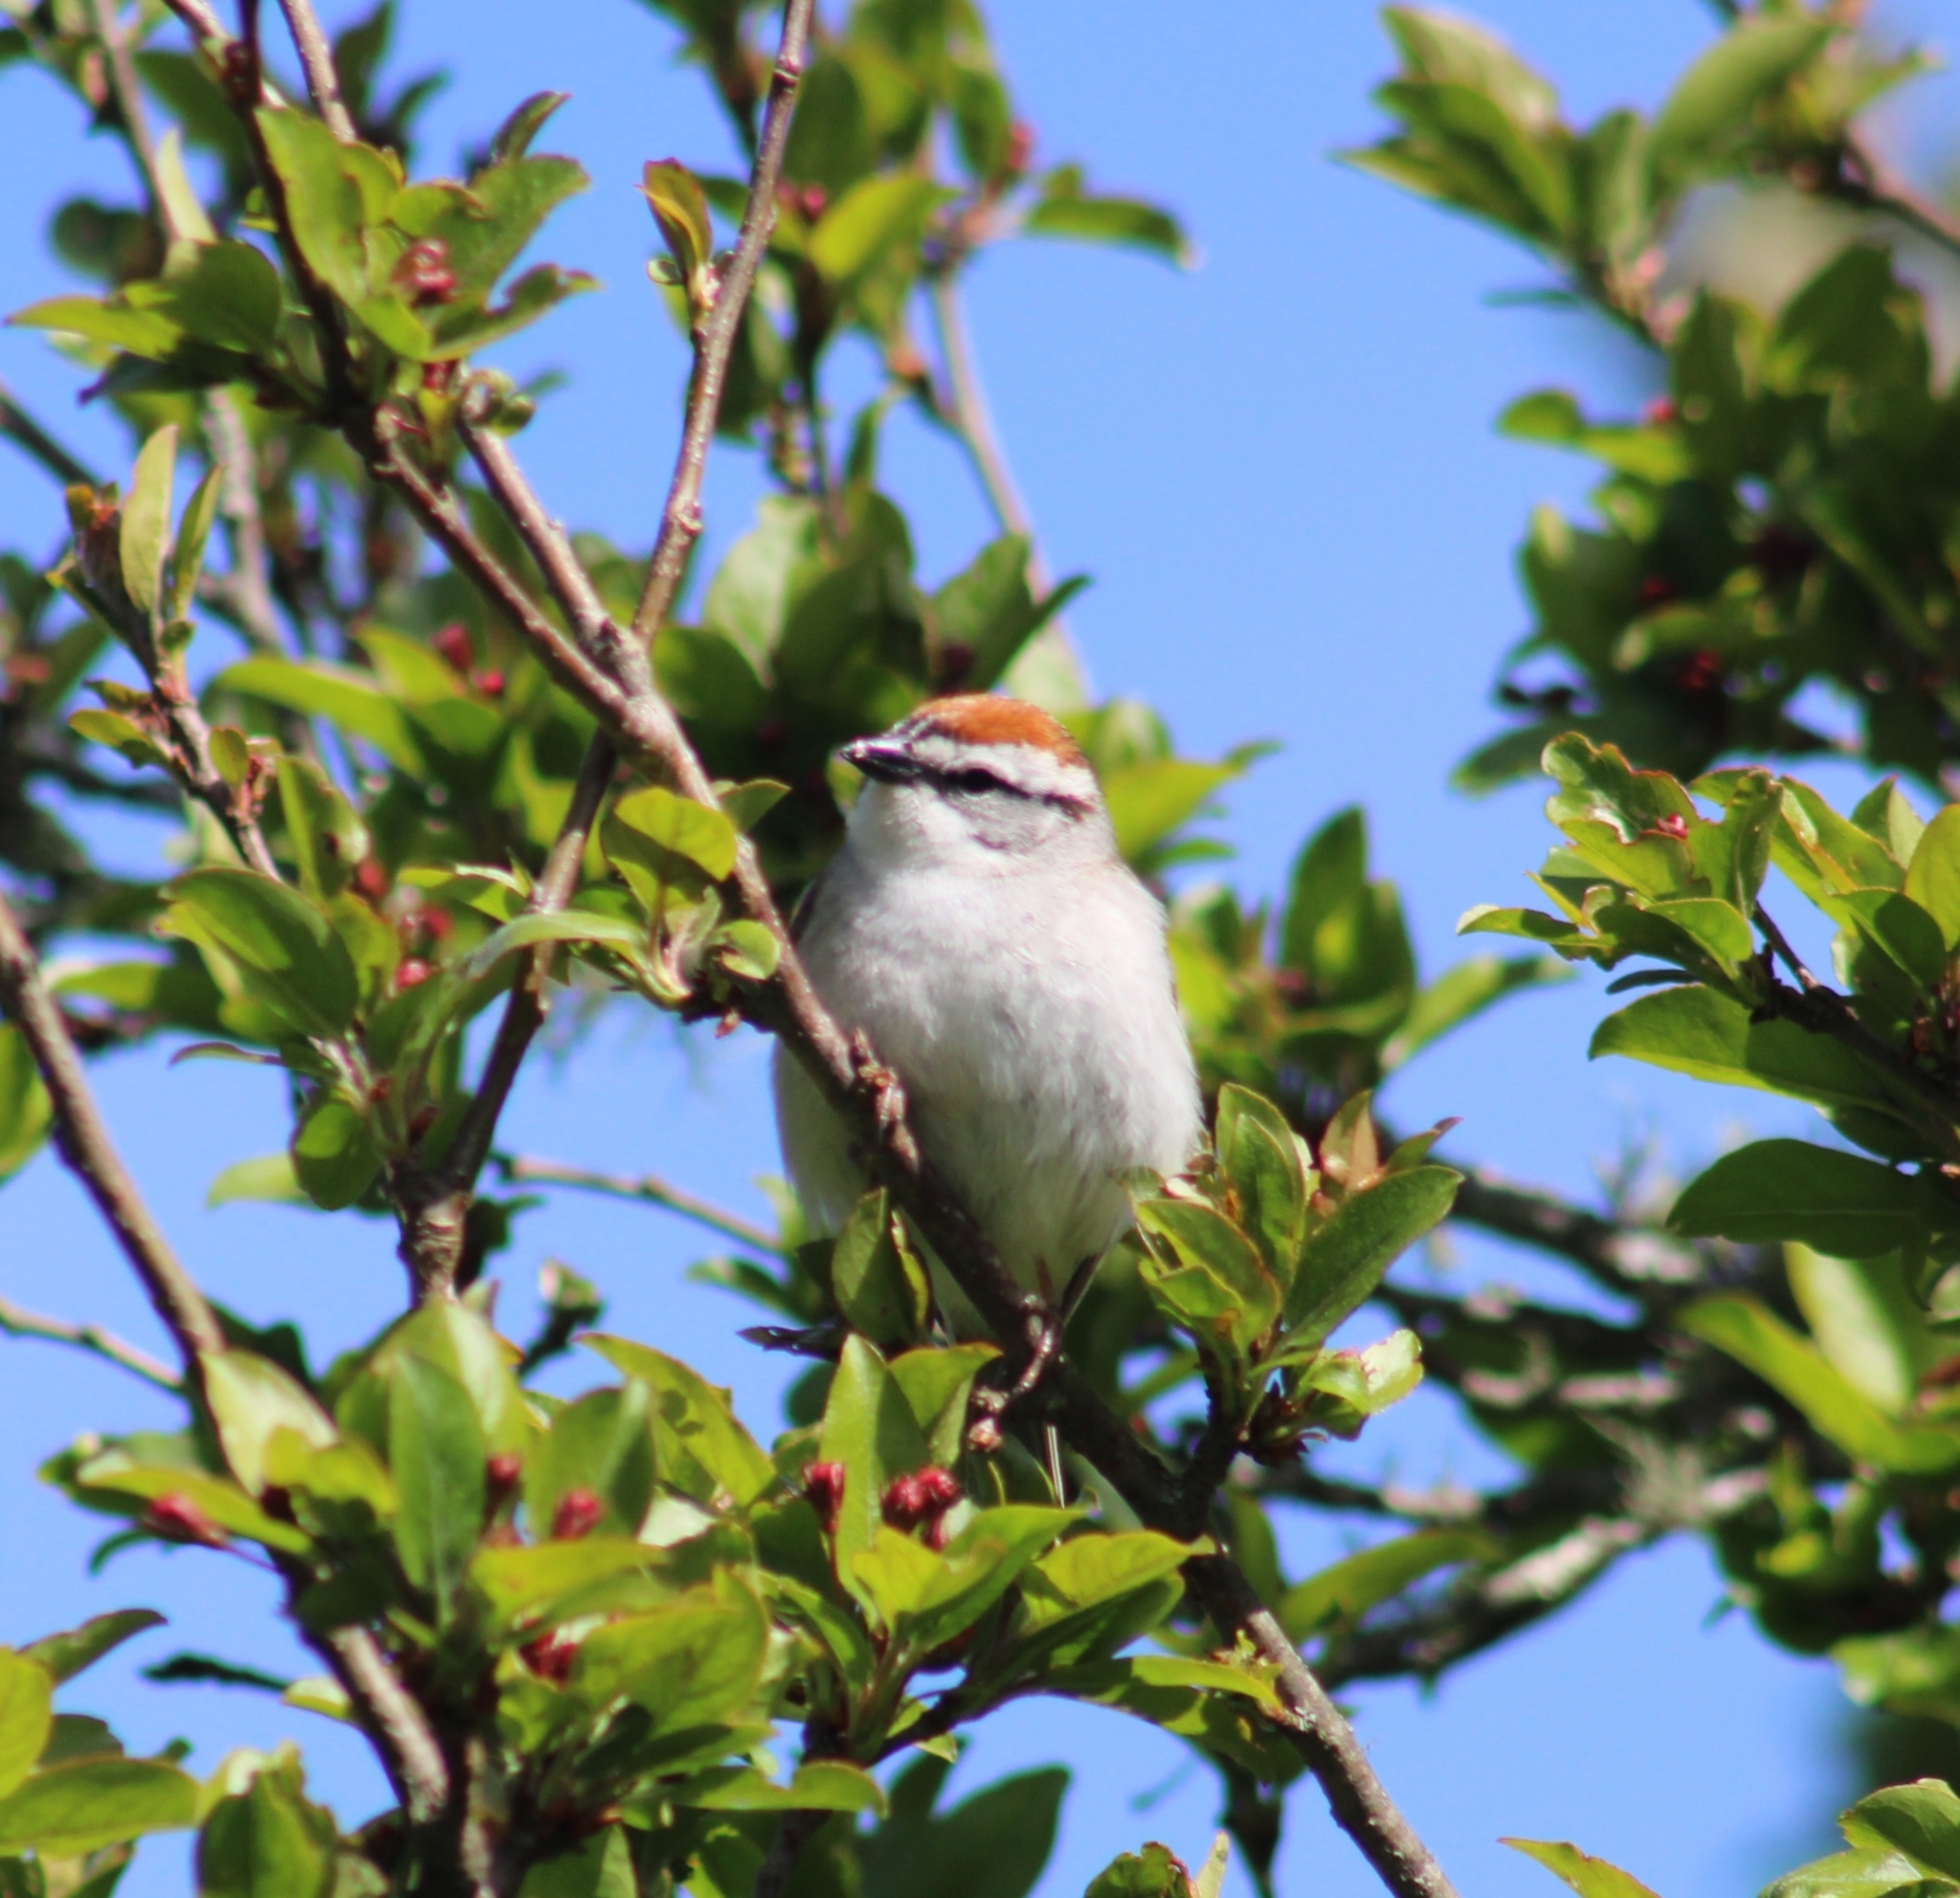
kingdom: Animalia
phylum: Chordata
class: Aves
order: Passeriformes
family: Passerellidae
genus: Spizella
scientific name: Spizella passerina
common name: Chipping sparrow
